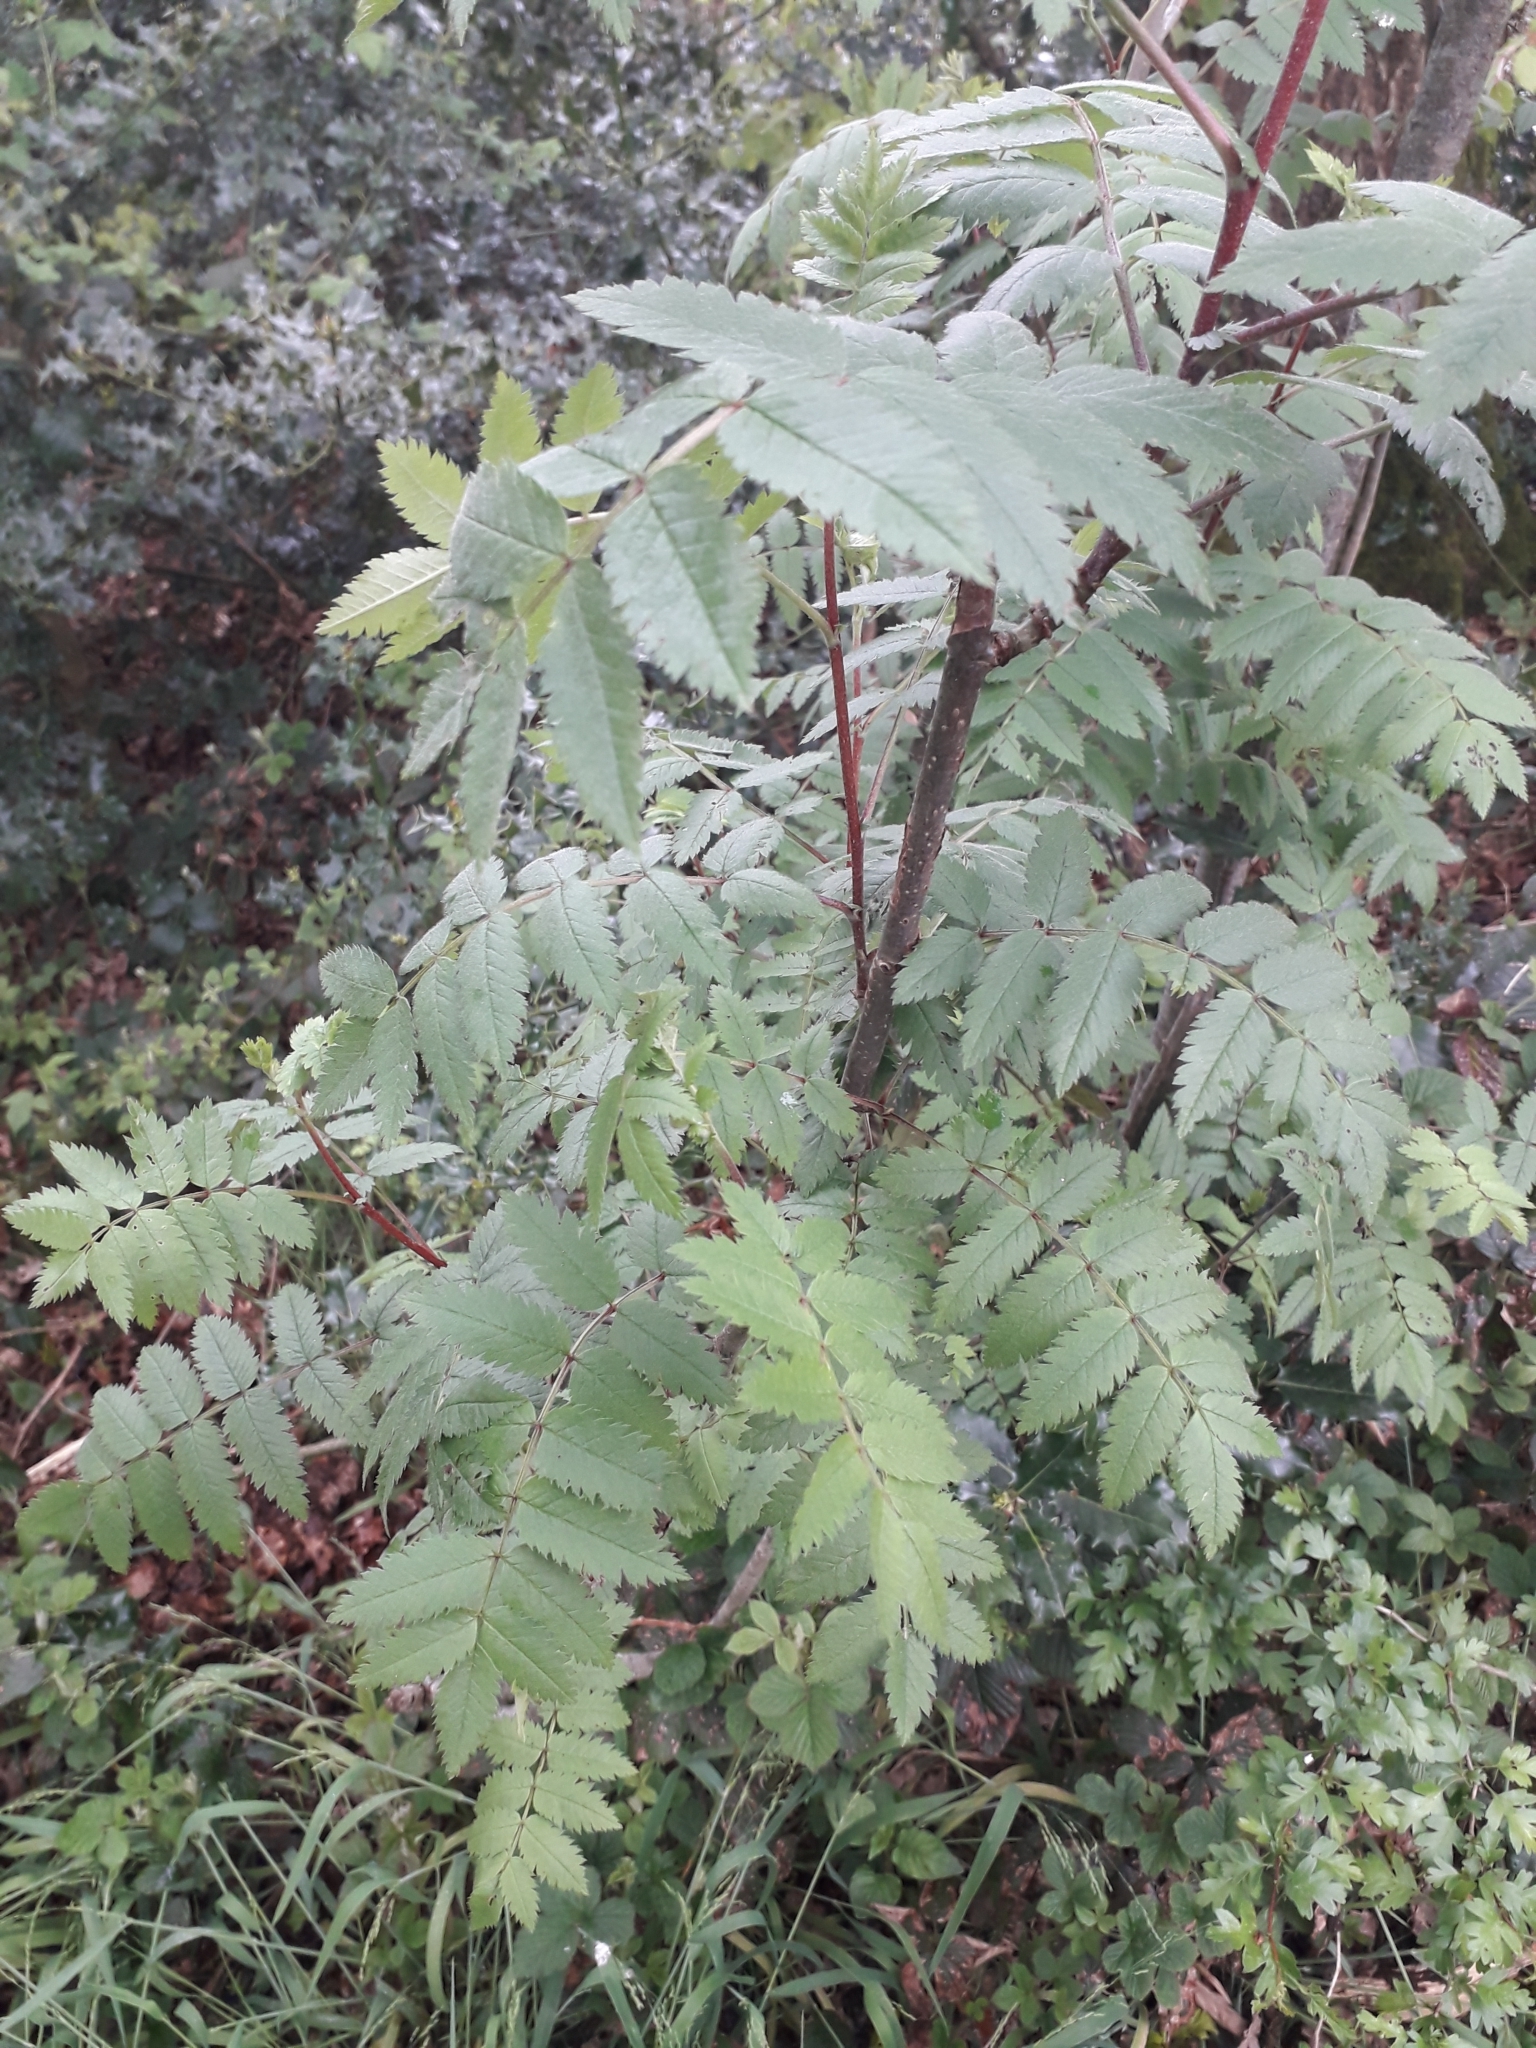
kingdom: Plantae
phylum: Tracheophyta
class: Magnoliopsida
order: Rosales
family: Rosaceae
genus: Sorbus
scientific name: Sorbus aucuparia
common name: Rowan
